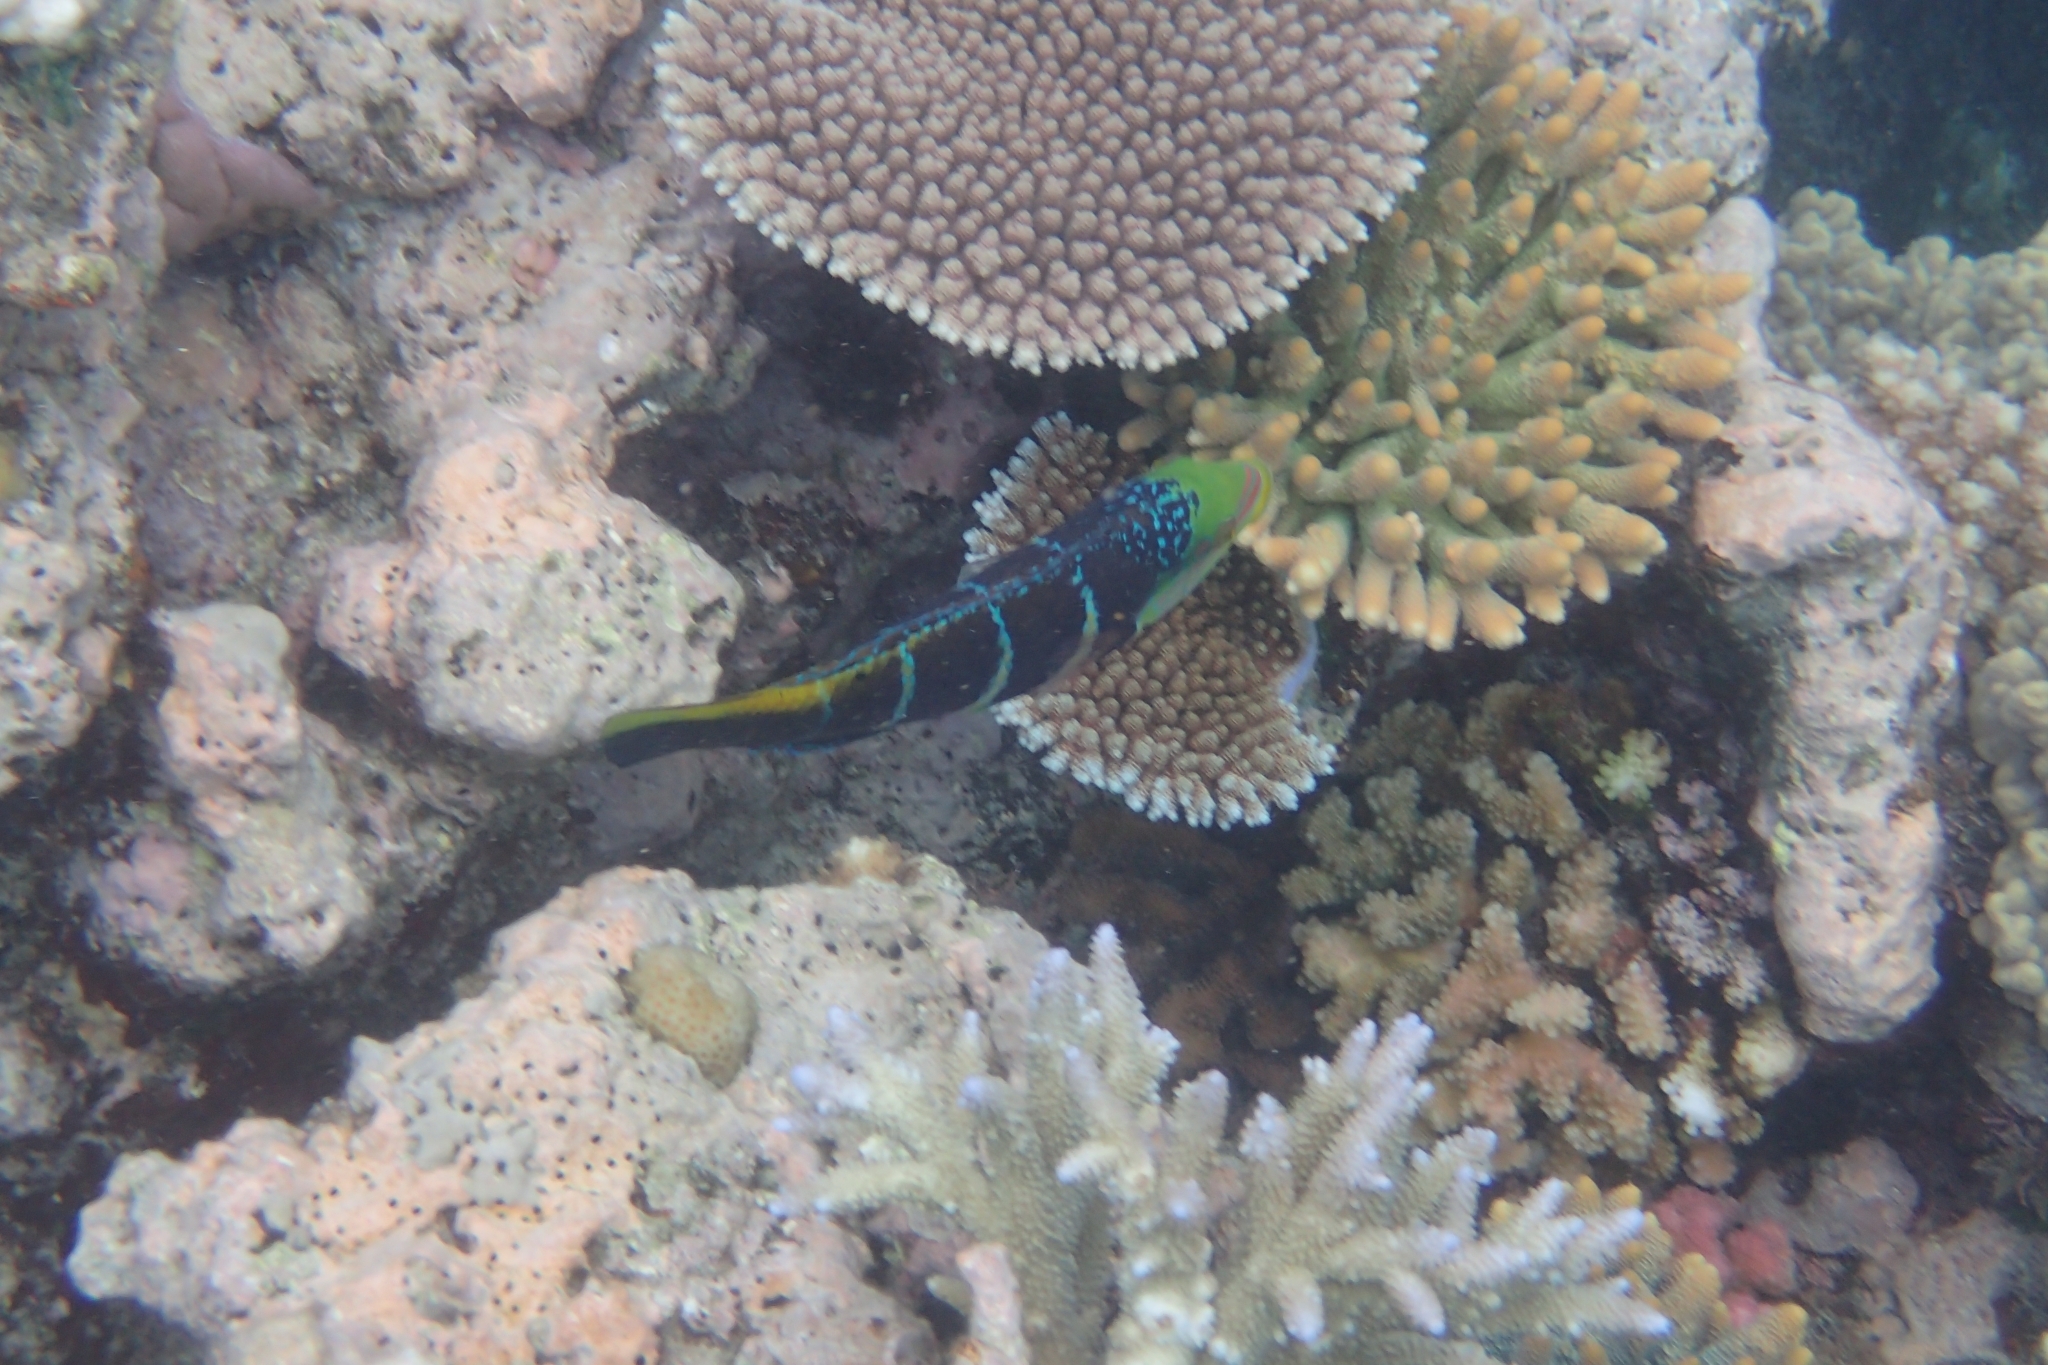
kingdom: Animalia
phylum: Chordata
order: Perciformes
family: Labridae
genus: Hemigymnus
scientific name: Hemigymnus fasciatus
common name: Barred thicklip
